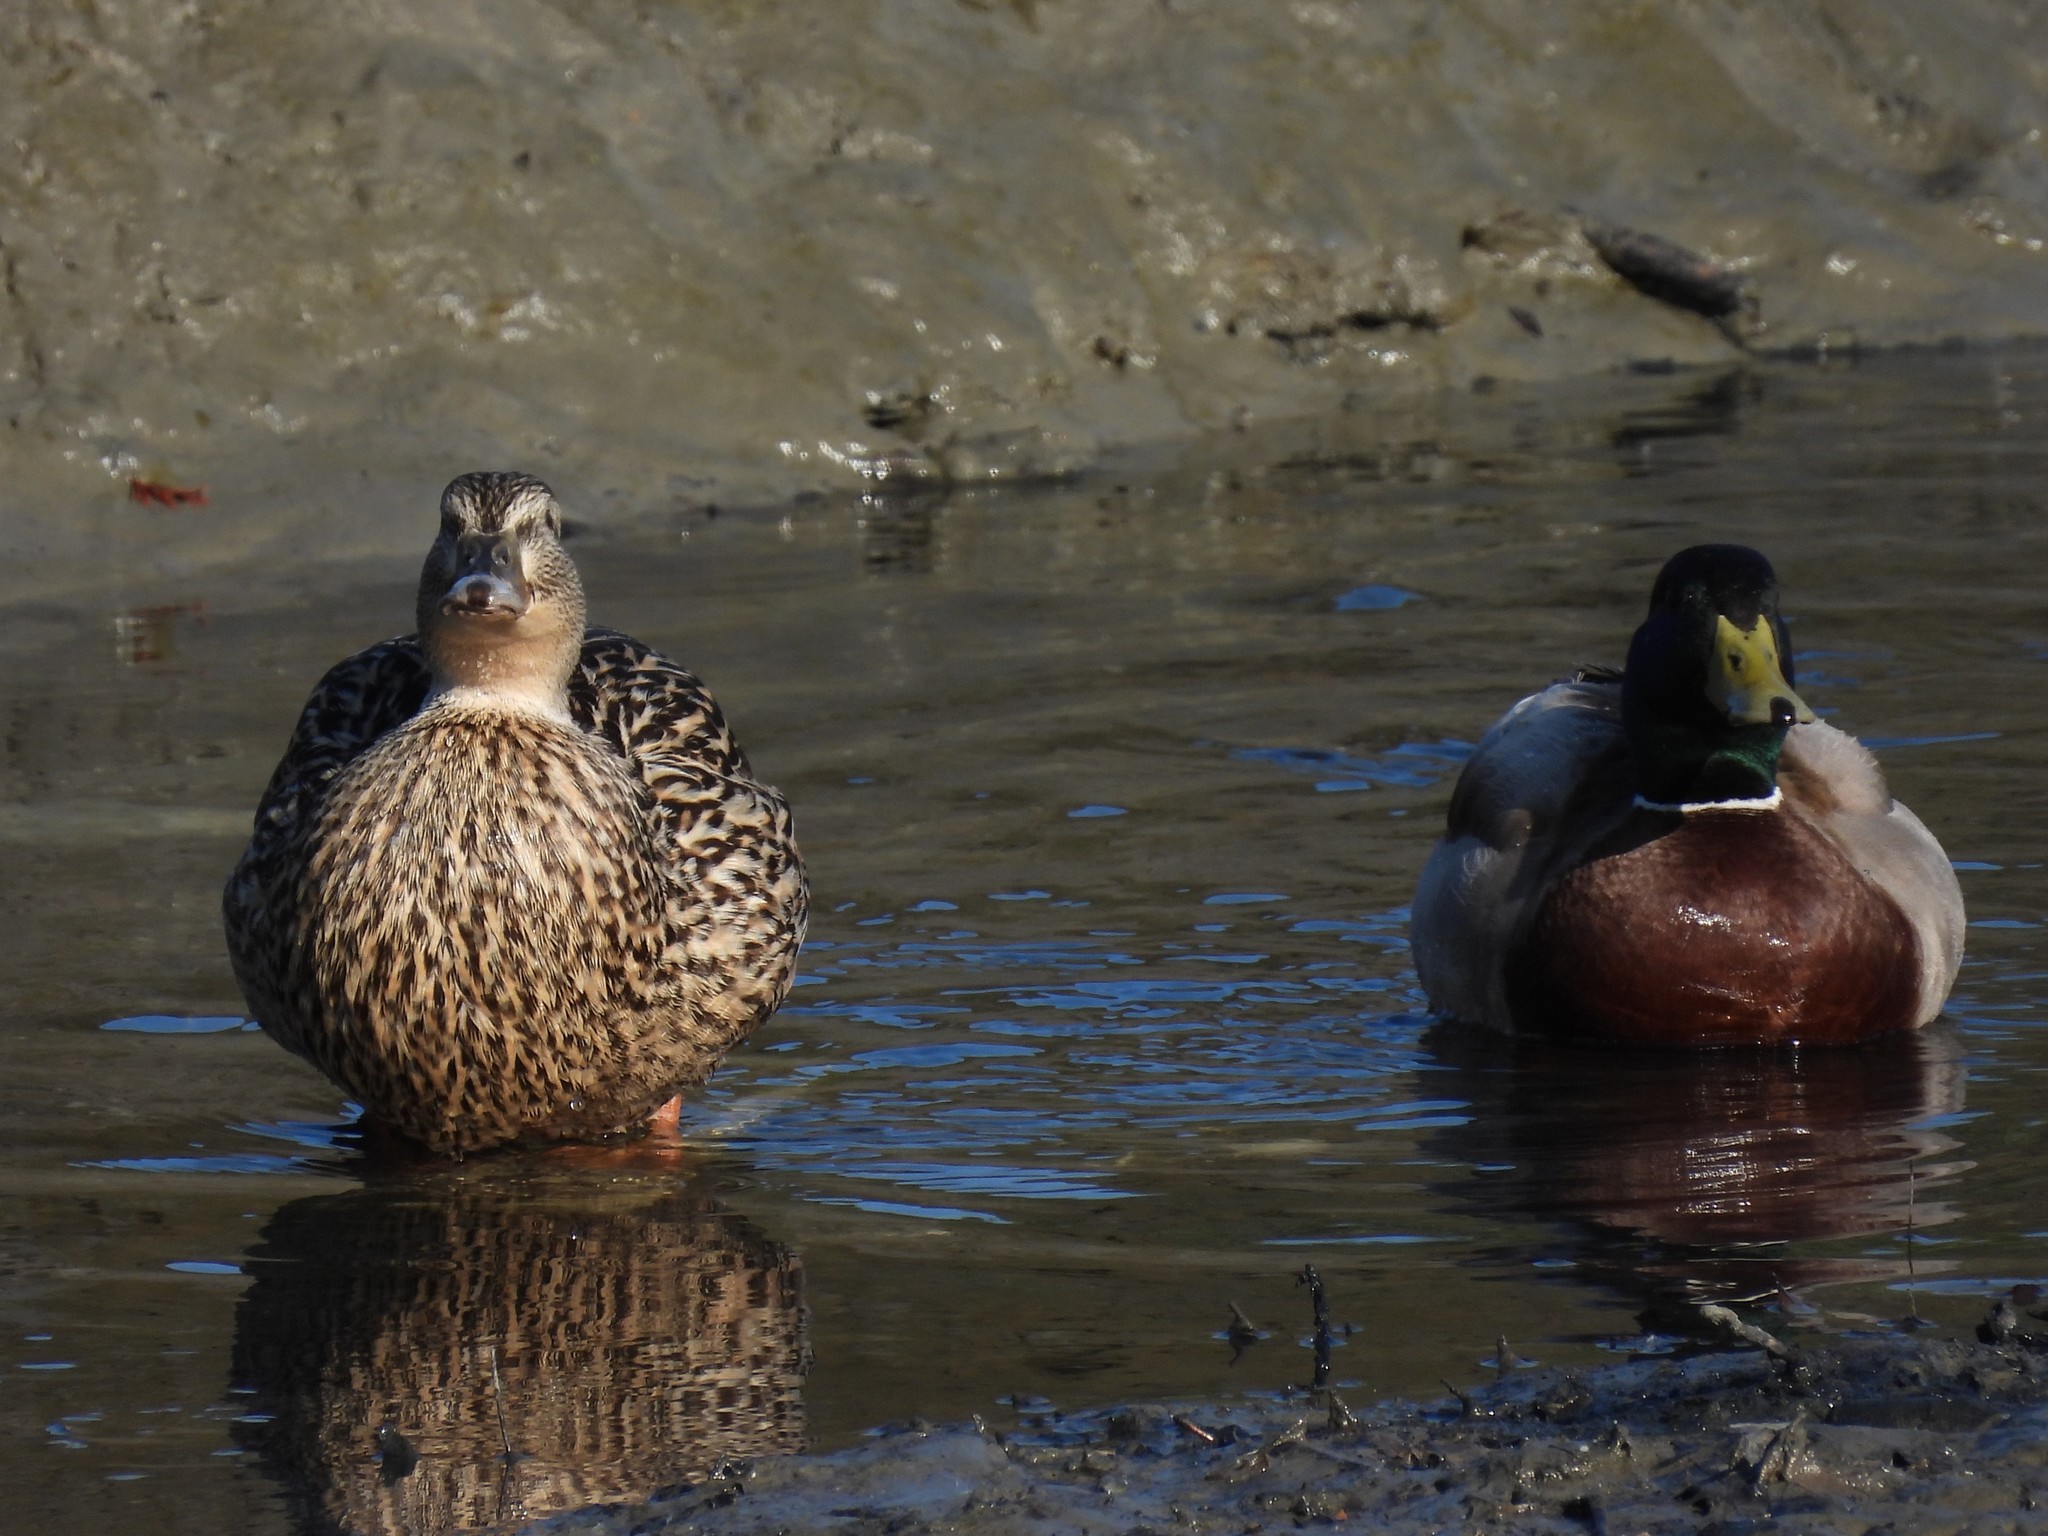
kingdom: Animalia
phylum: Chordata
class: Aves
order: Anseriformes
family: Anatidae
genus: Anas
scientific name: Anas platyrhynchos
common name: Mallard
